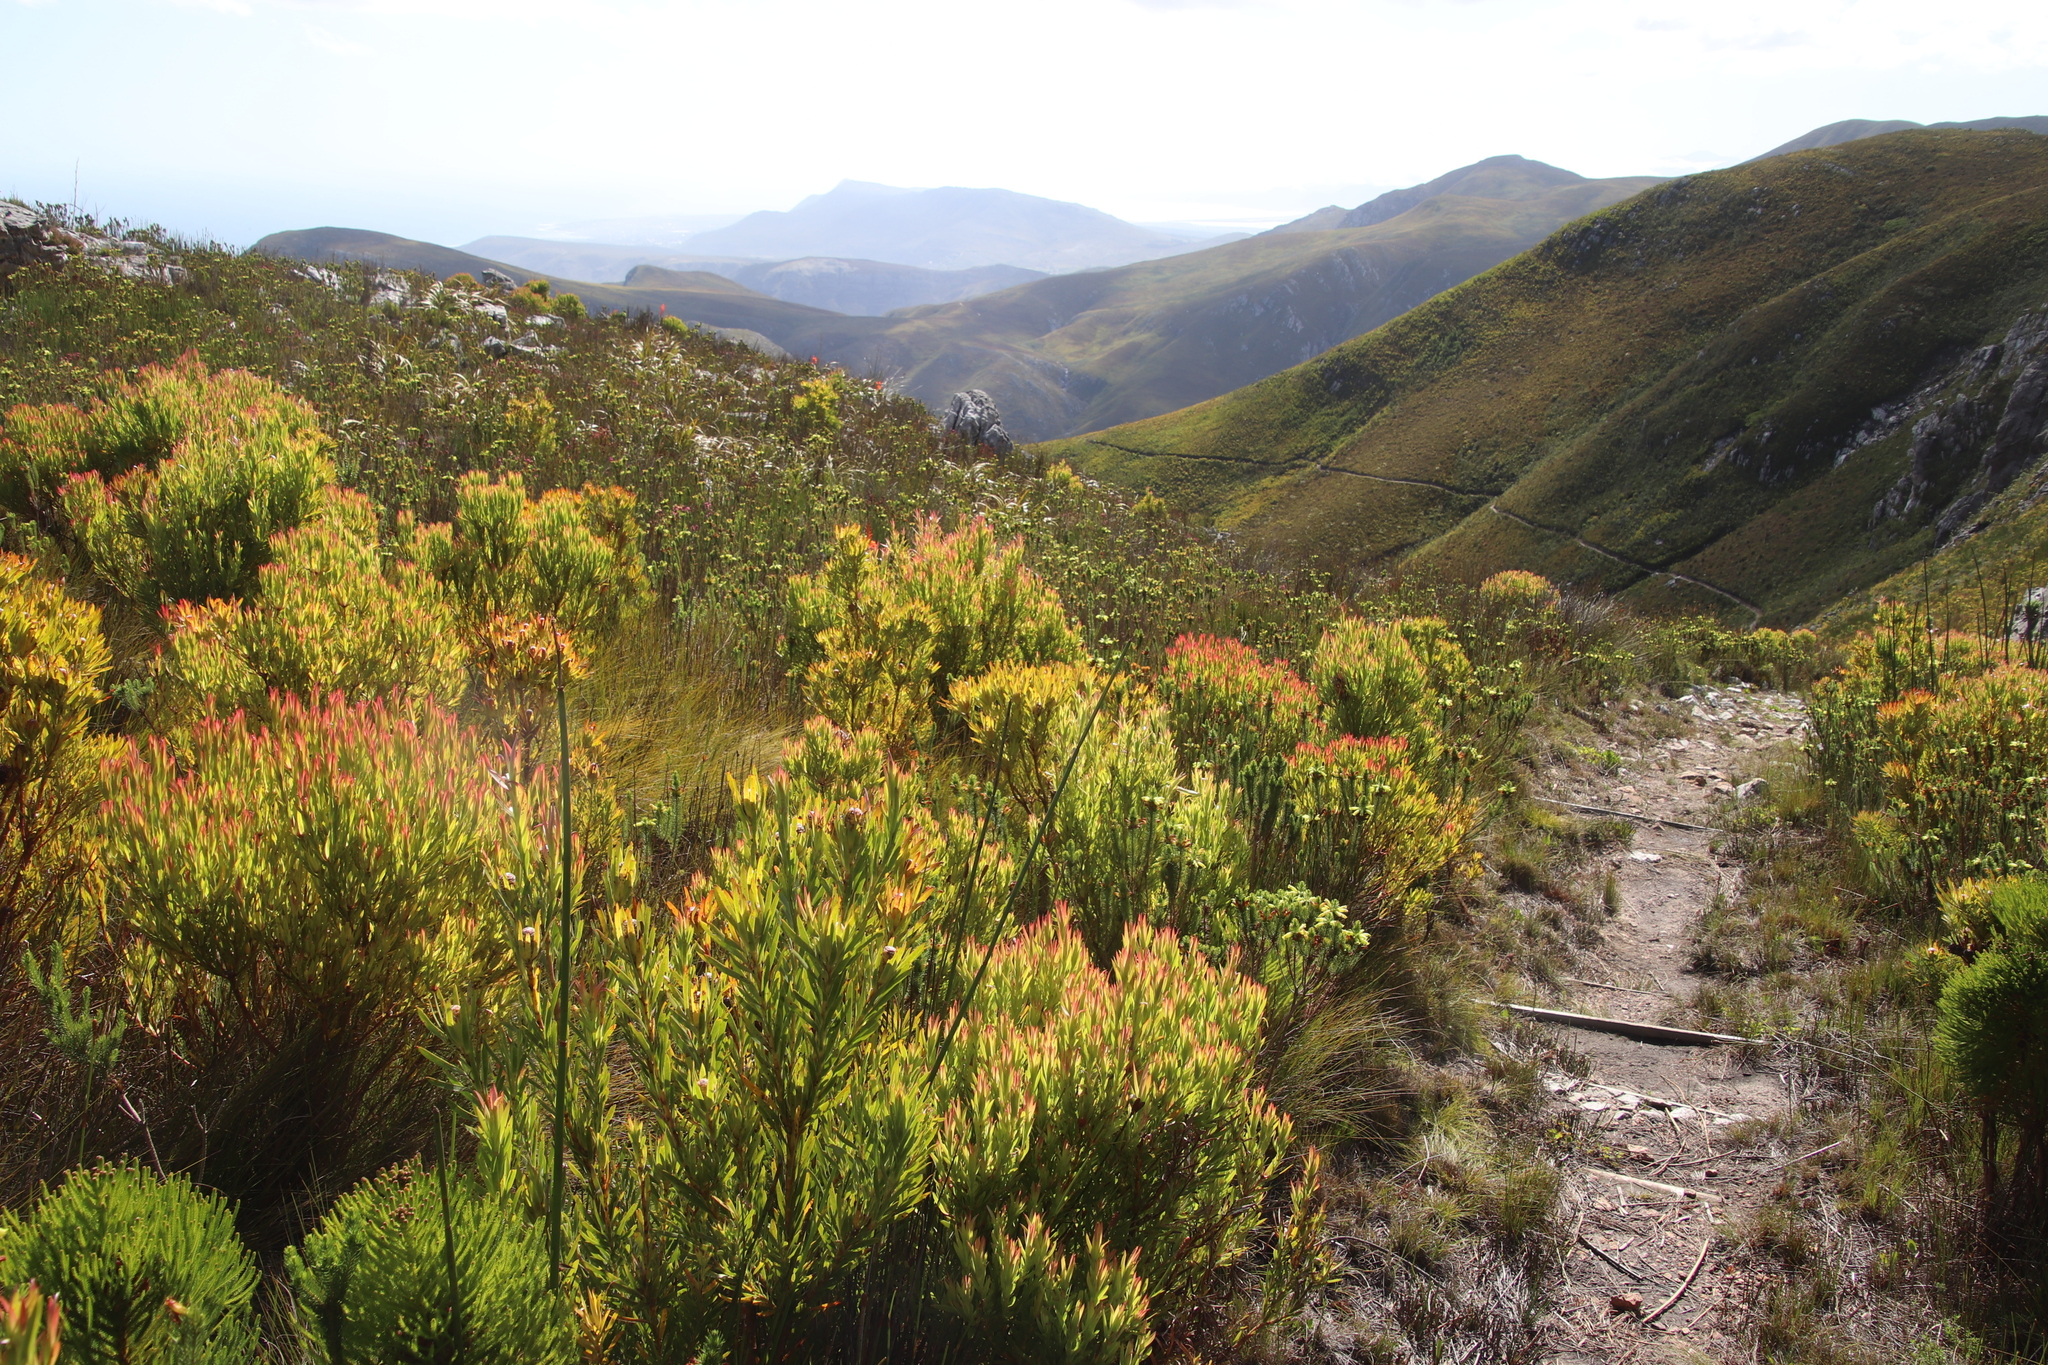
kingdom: Plantae
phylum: Tracheophyta
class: Magnoliopsida
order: Proteales
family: Proteaceae
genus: Leucadendron
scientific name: Leucadendron xanthoconus
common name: Sickle-leaf conebush
